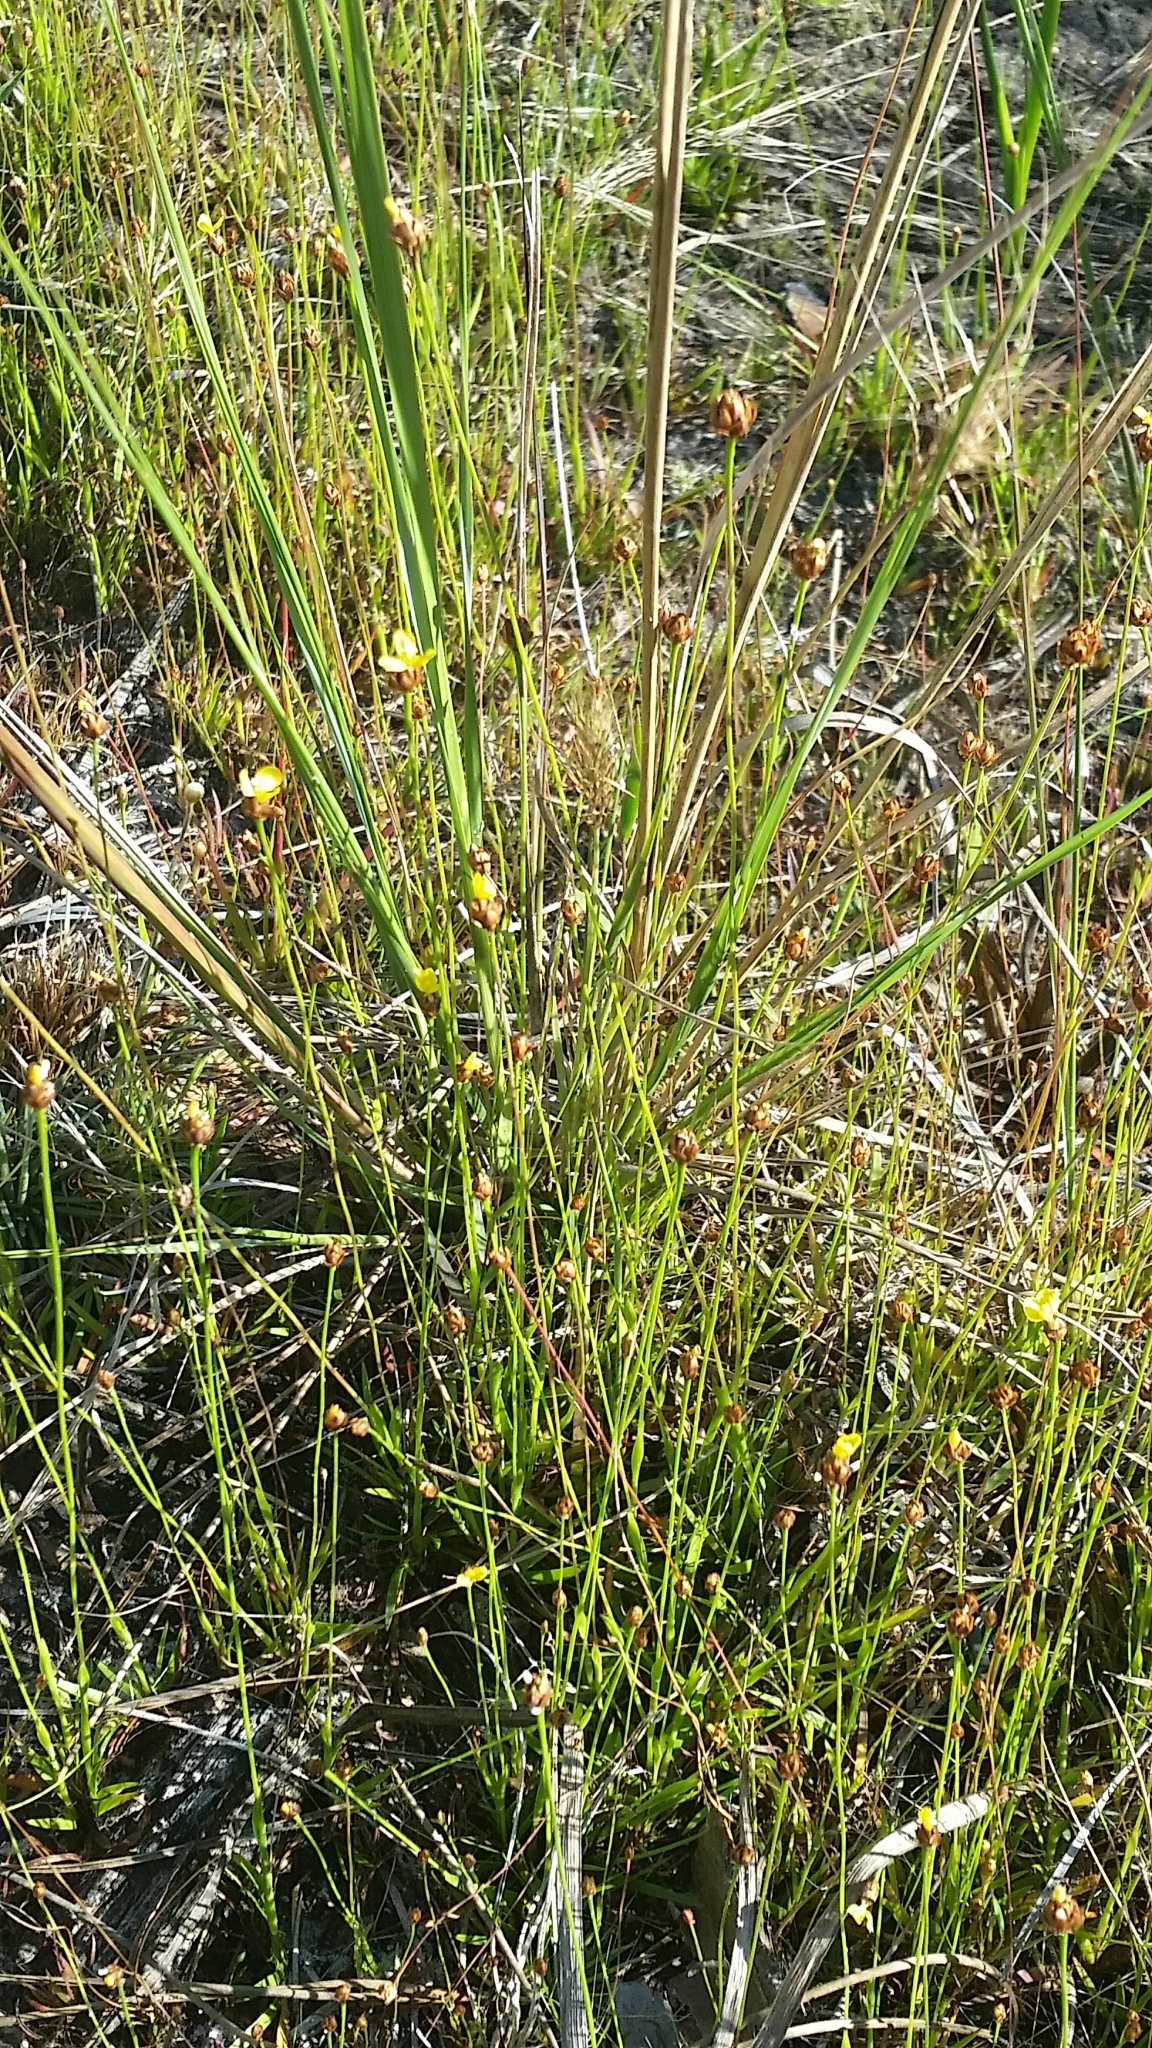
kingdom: Plantae
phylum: Tracheophyta
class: Liliopsida
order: Poales
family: Xyridaceae
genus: Xyris
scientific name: Xyris brevifolia
